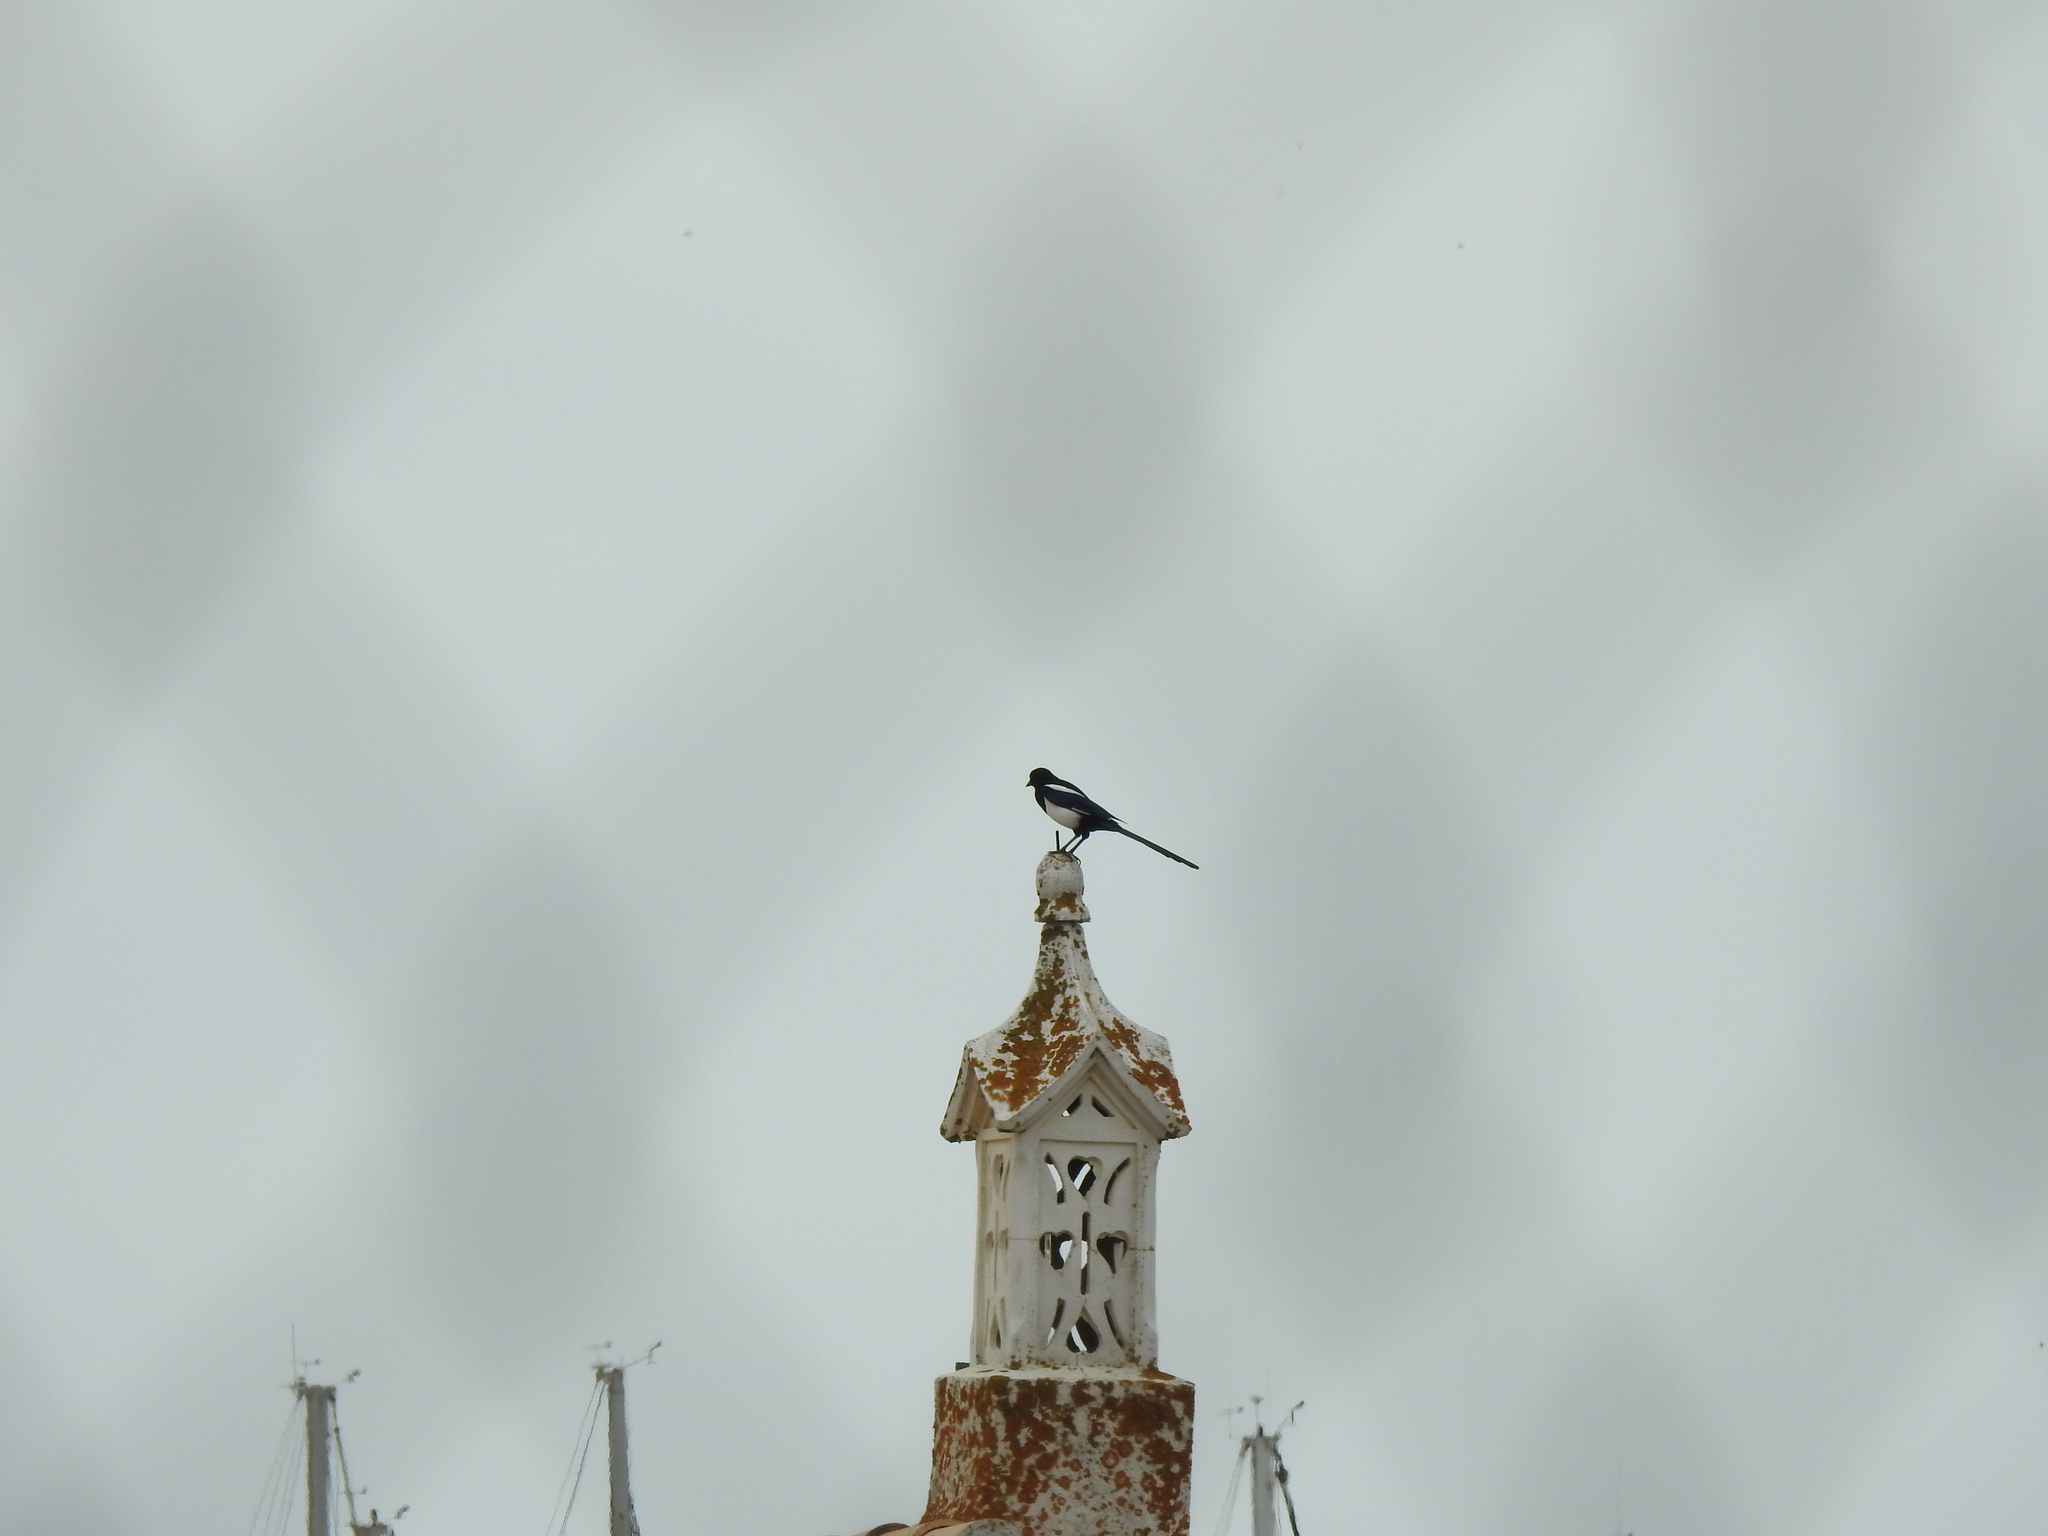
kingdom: Animalia
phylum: Chordata
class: Aves
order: Passeriformes
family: Corvidae
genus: Pica
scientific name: Pica pica
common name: Eurasian magpie
